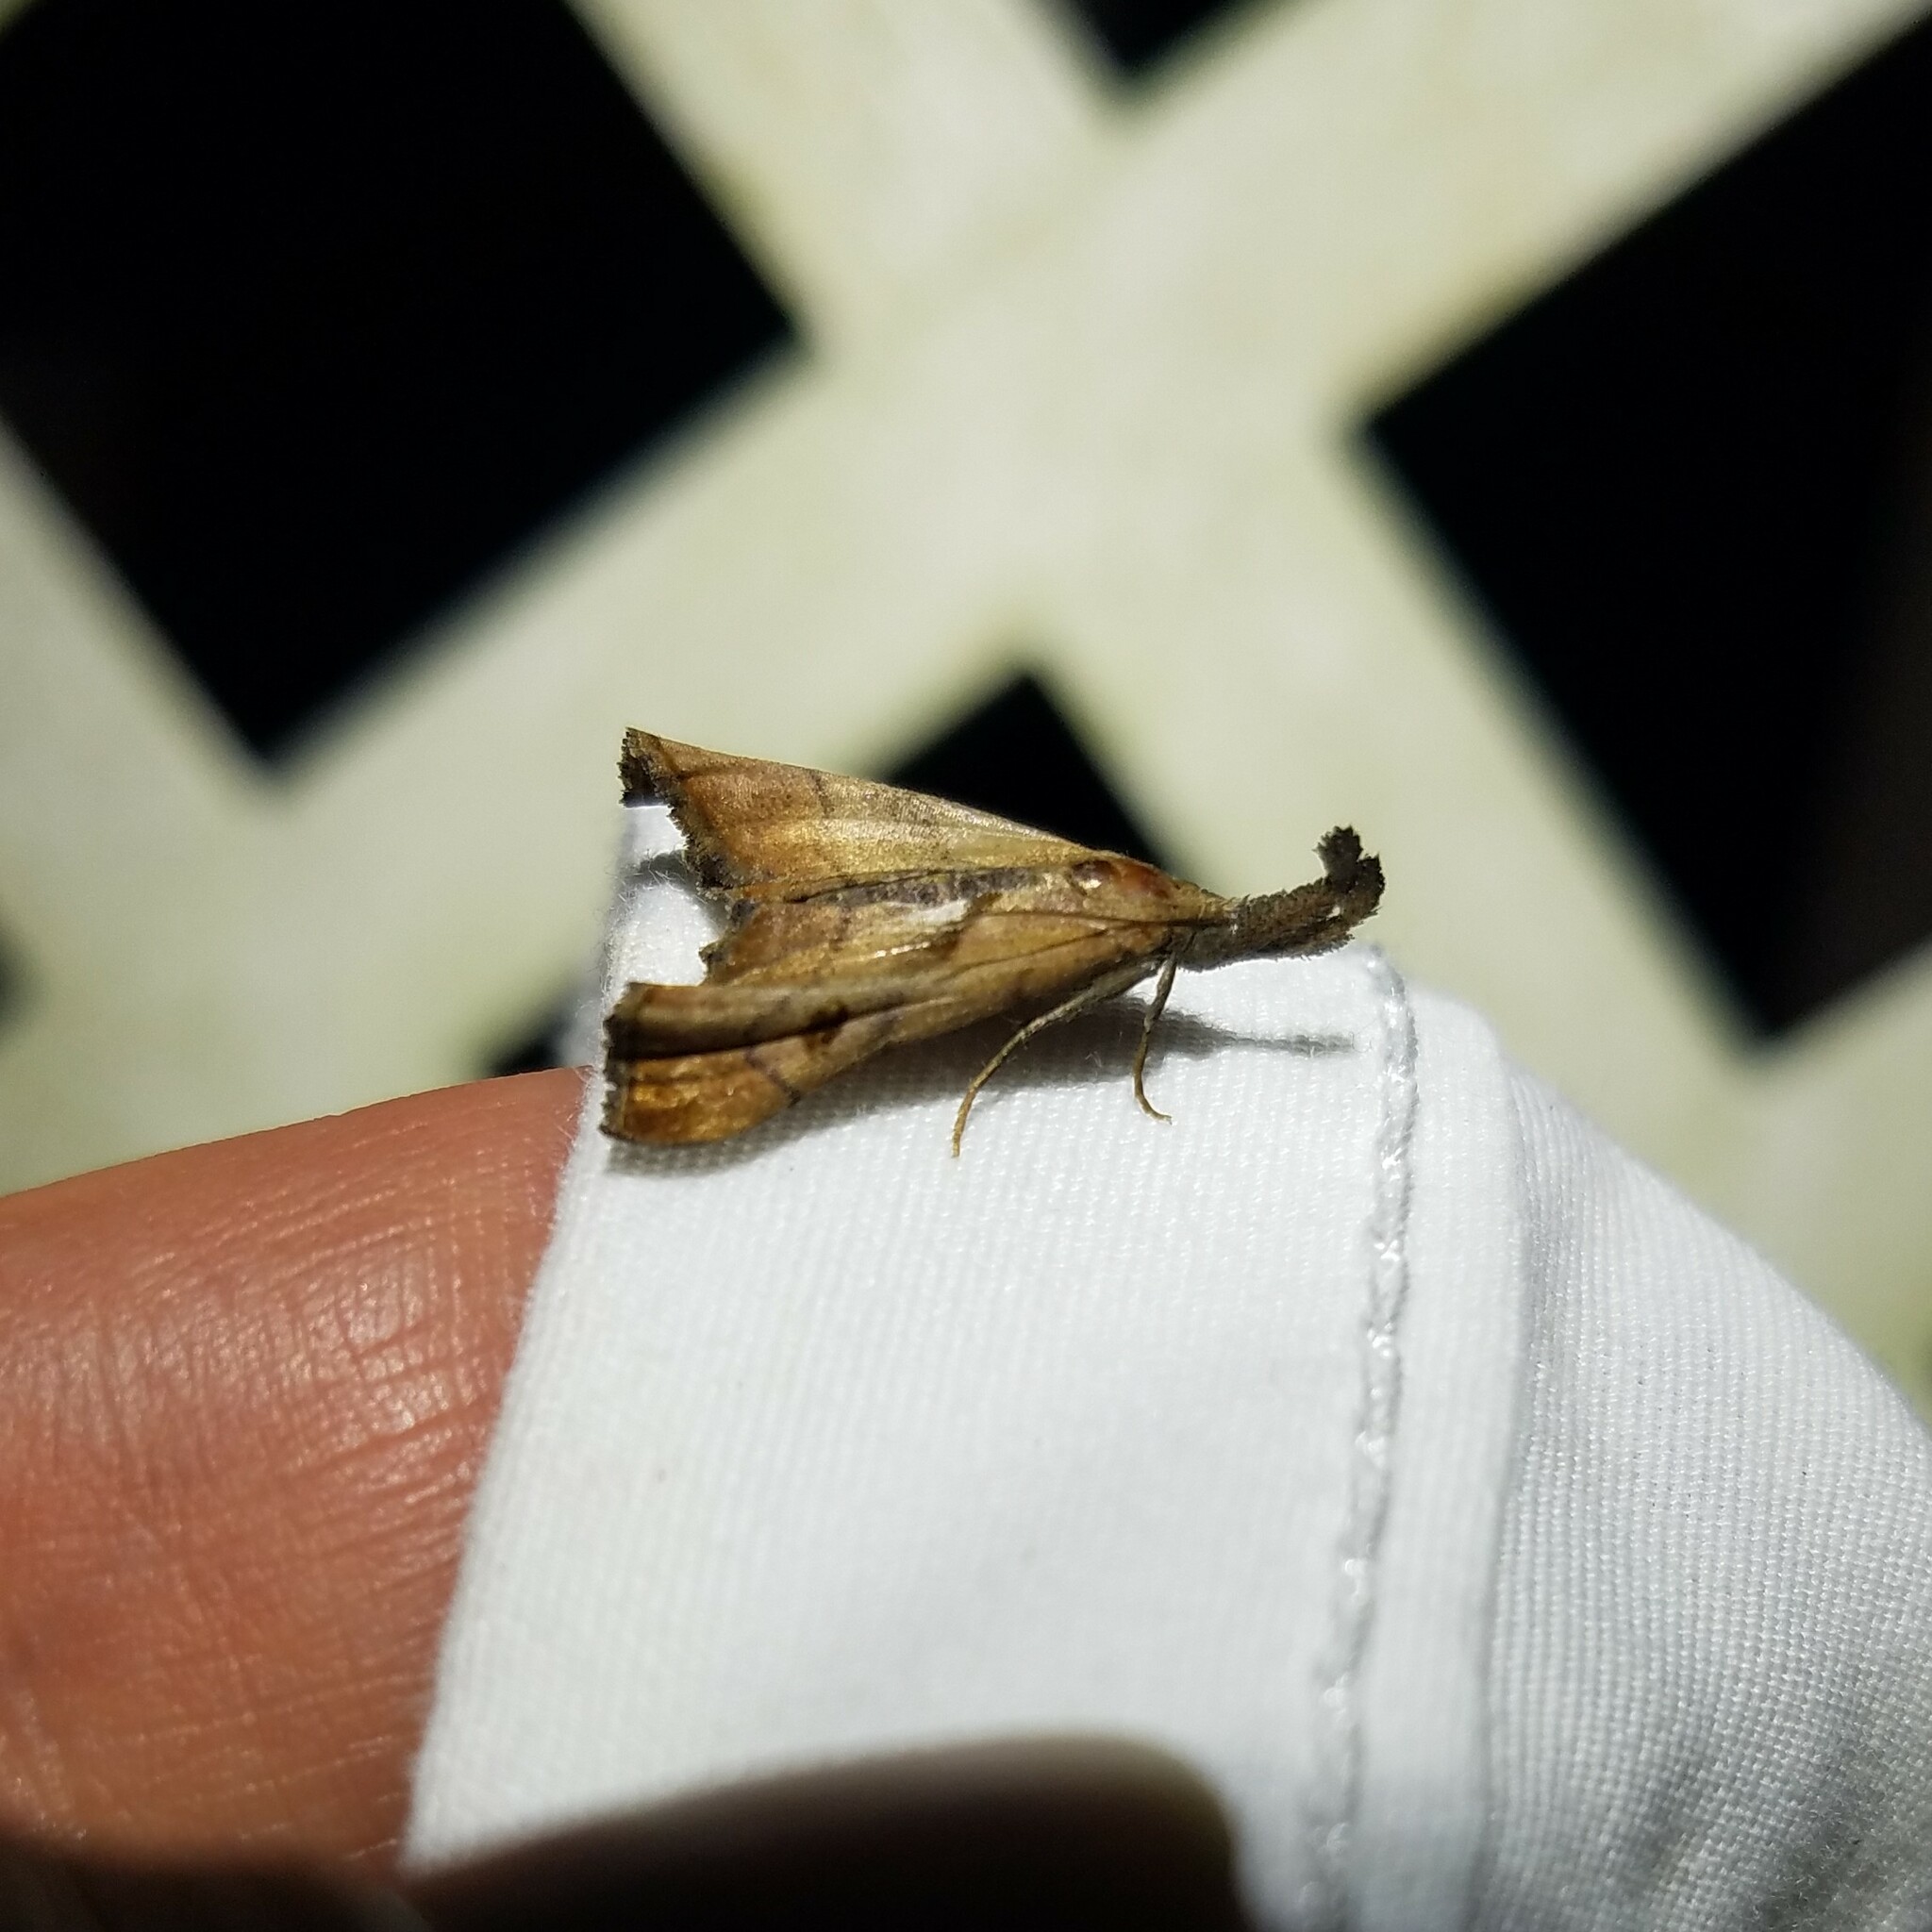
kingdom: Animalia
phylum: Arthropoda
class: Insecta
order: Lepidoptera
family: Erebidae
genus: Palthis
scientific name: Palthis angulalis
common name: Dark-spotted palthis moth
